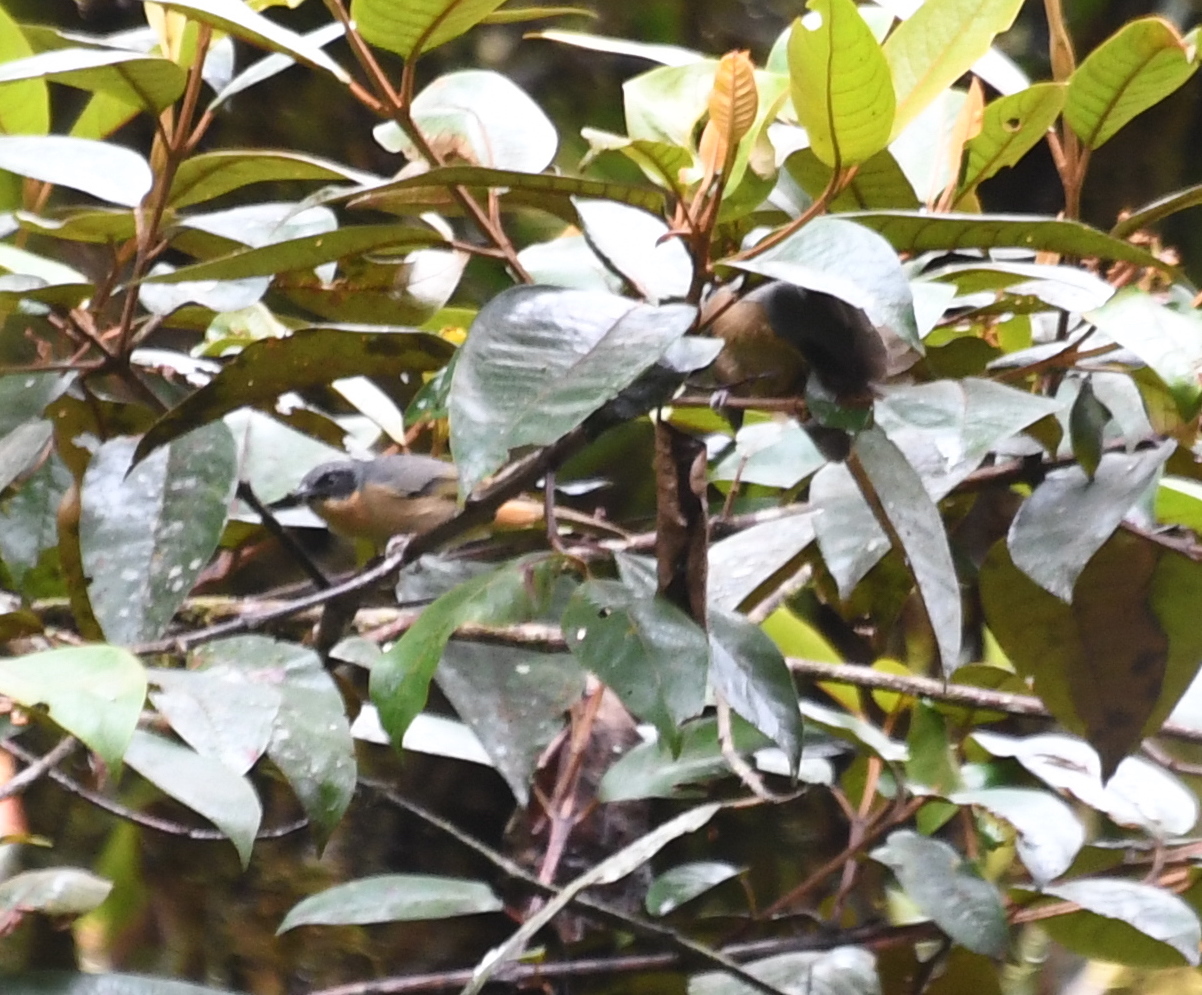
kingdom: Animalia
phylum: Chordata
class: Aves
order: Passeriformes
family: Thraupidae
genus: Pipraeidea
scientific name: Pipraeidea melanonota
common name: Fawn-breasted tanager
